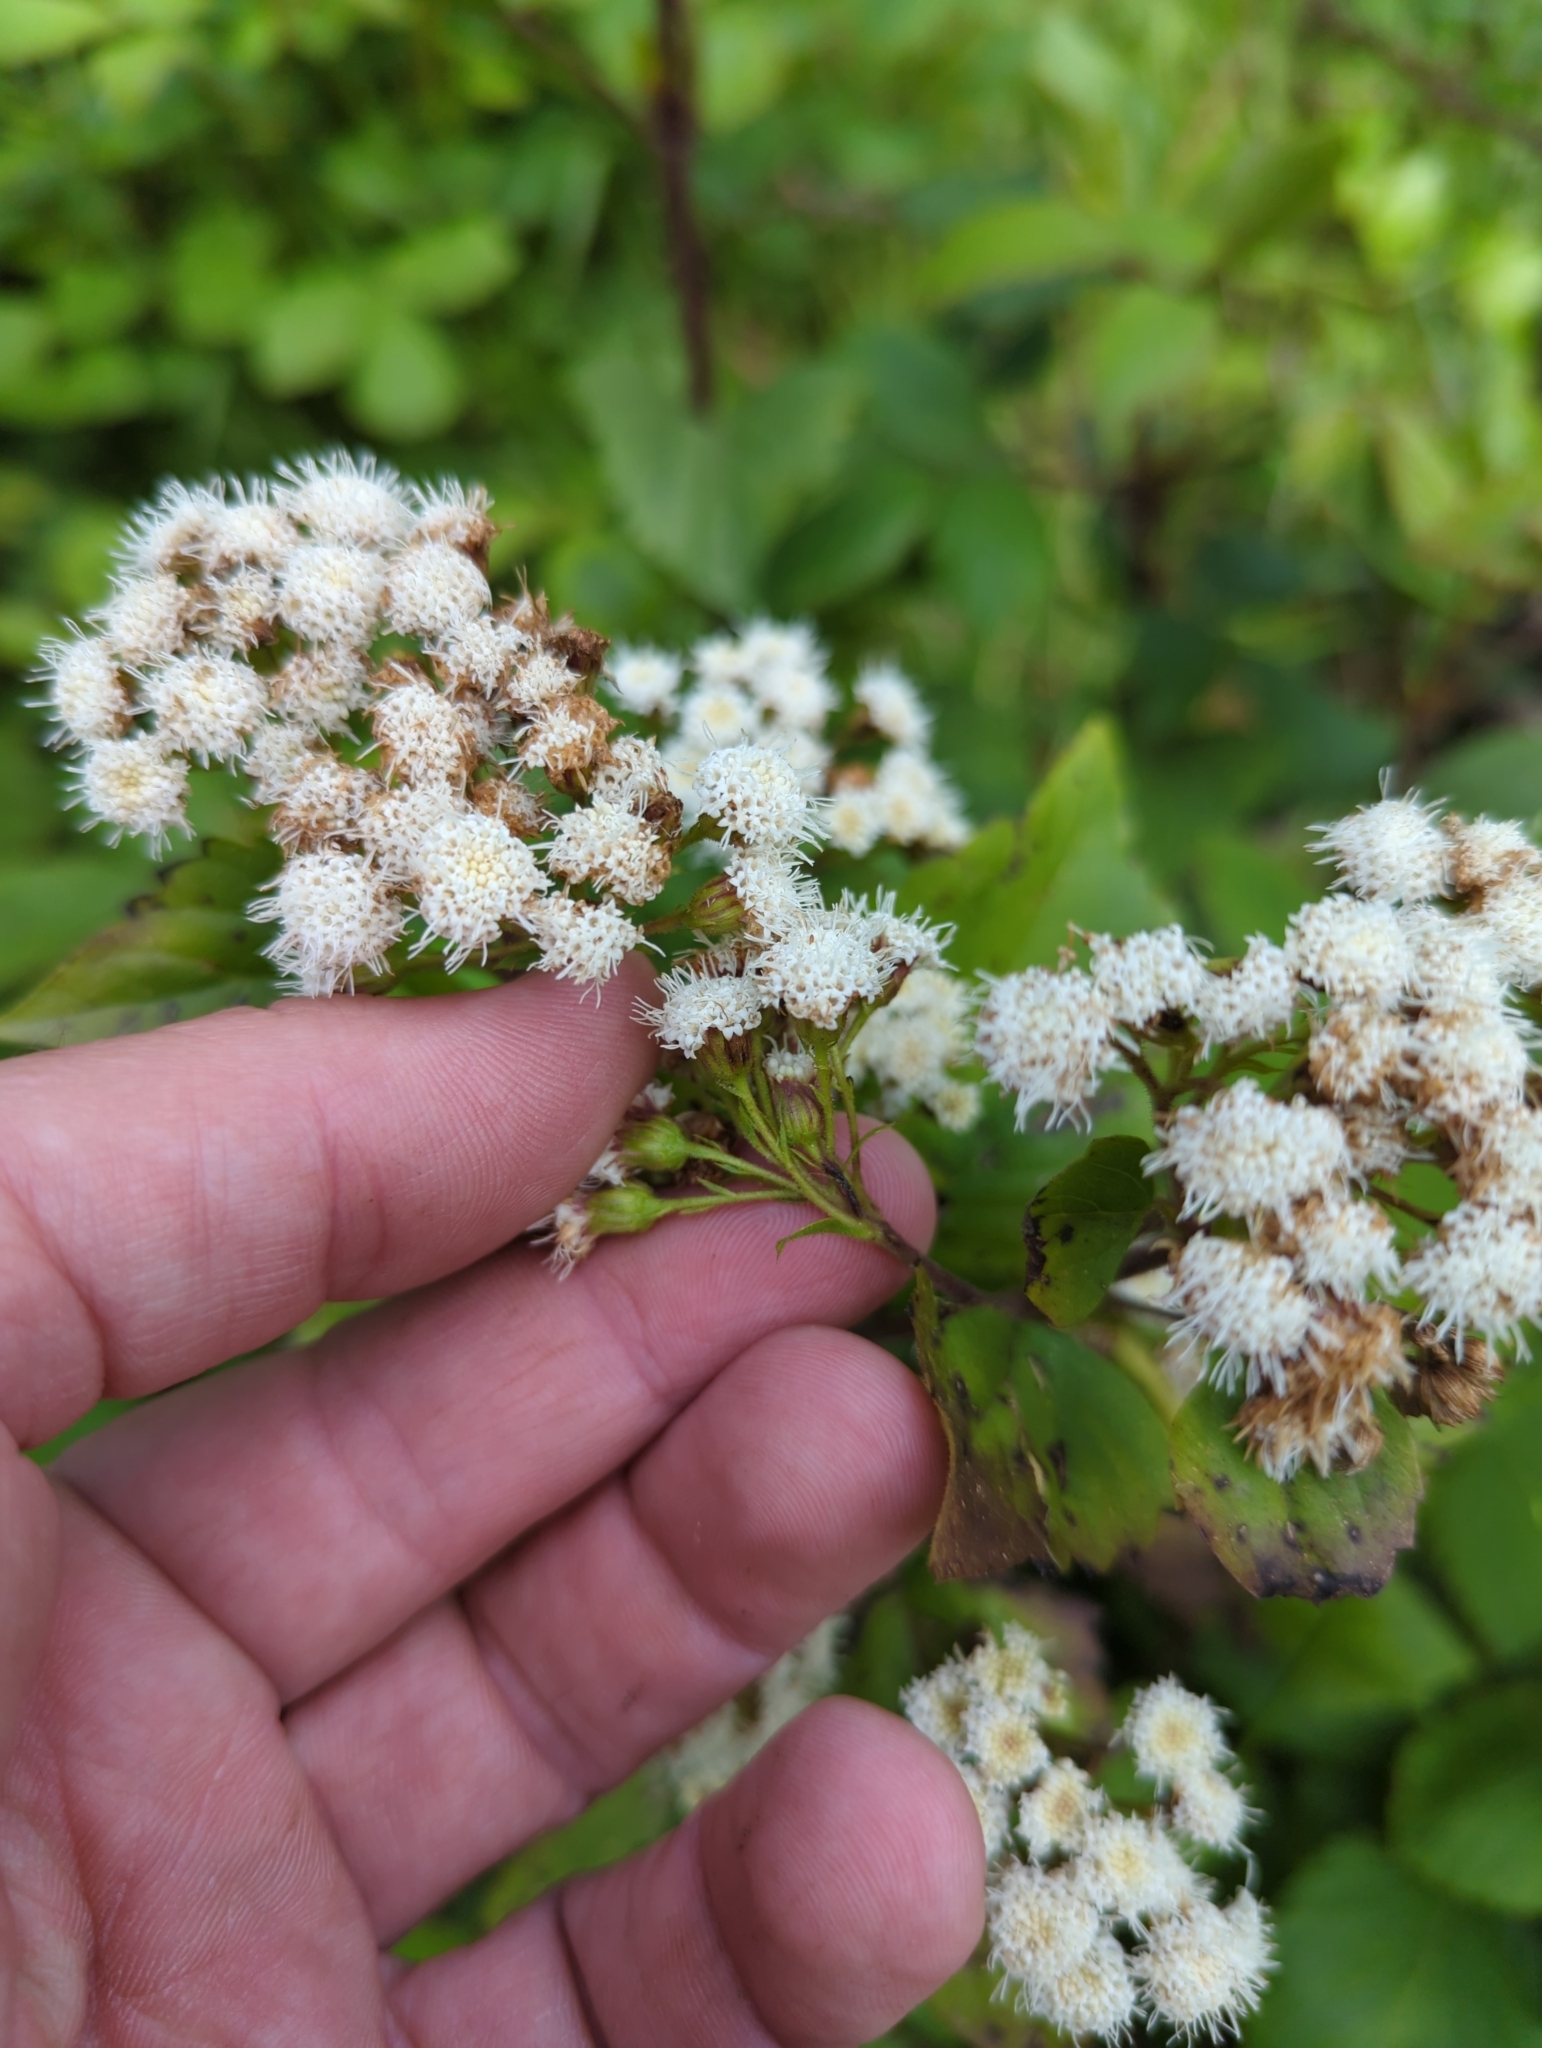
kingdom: Plantae
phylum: Tracheophyta
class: Magnoliopsida
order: Asterales
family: Asteraceae
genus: Ageratina
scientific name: Ageratina adenophora
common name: Sticky snakeroot
